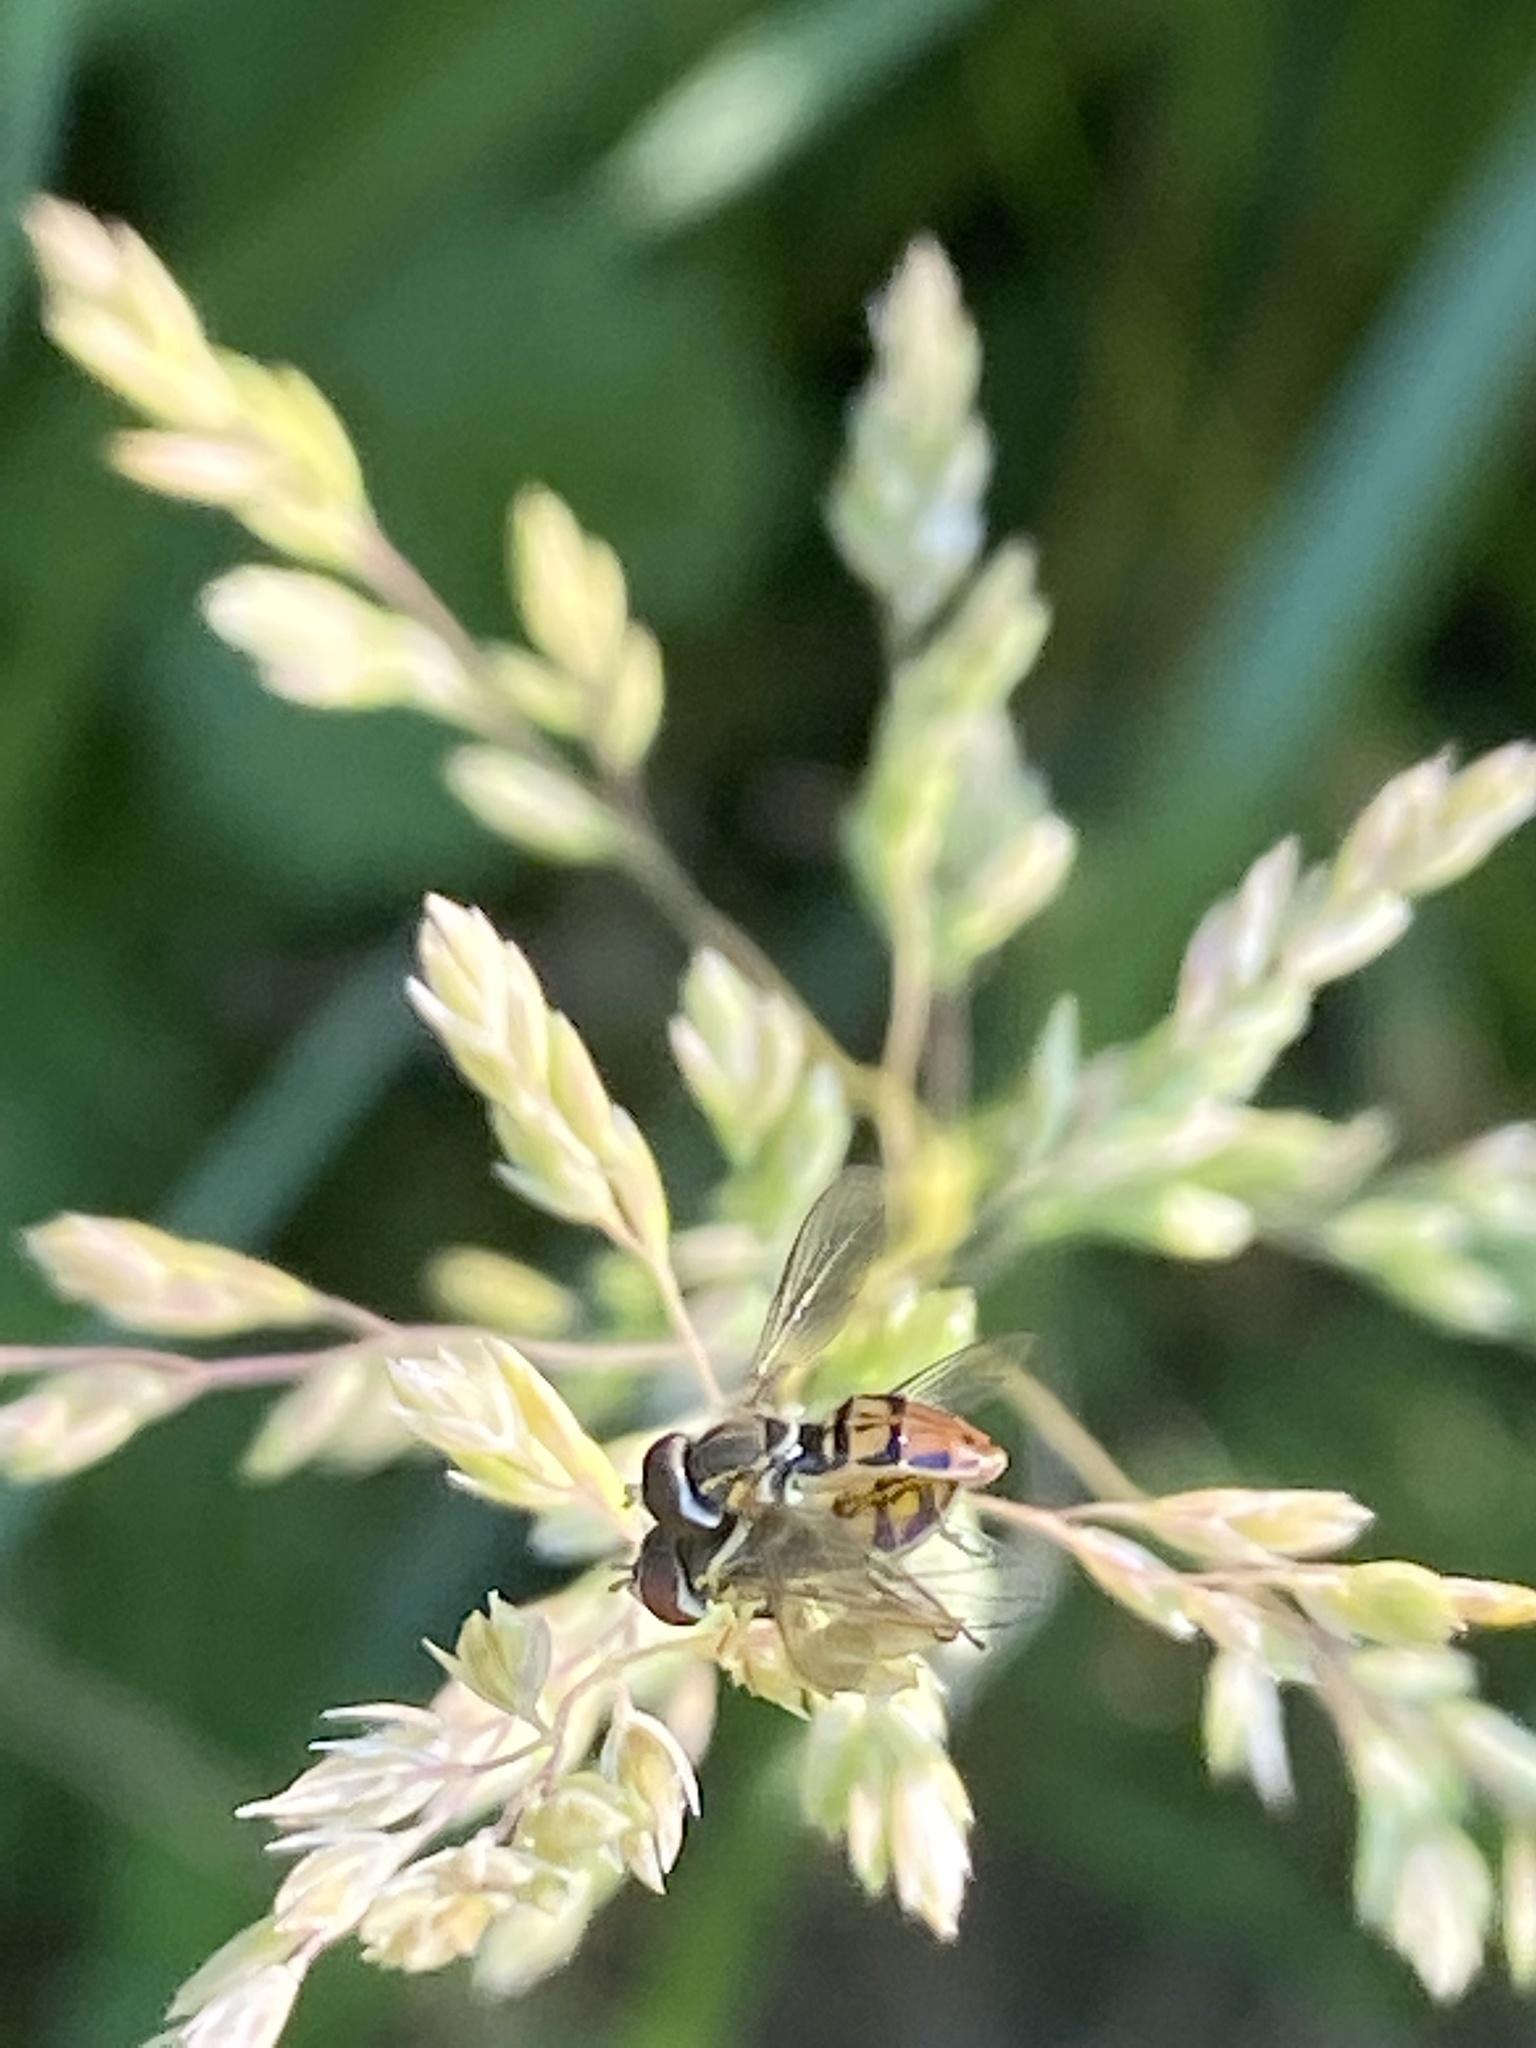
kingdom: Animalia
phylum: Arthropoda
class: Insecta
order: Diptera
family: Syrphidae
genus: Toxomerus
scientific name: Toxomerus marginatus
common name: Syrphid fly
